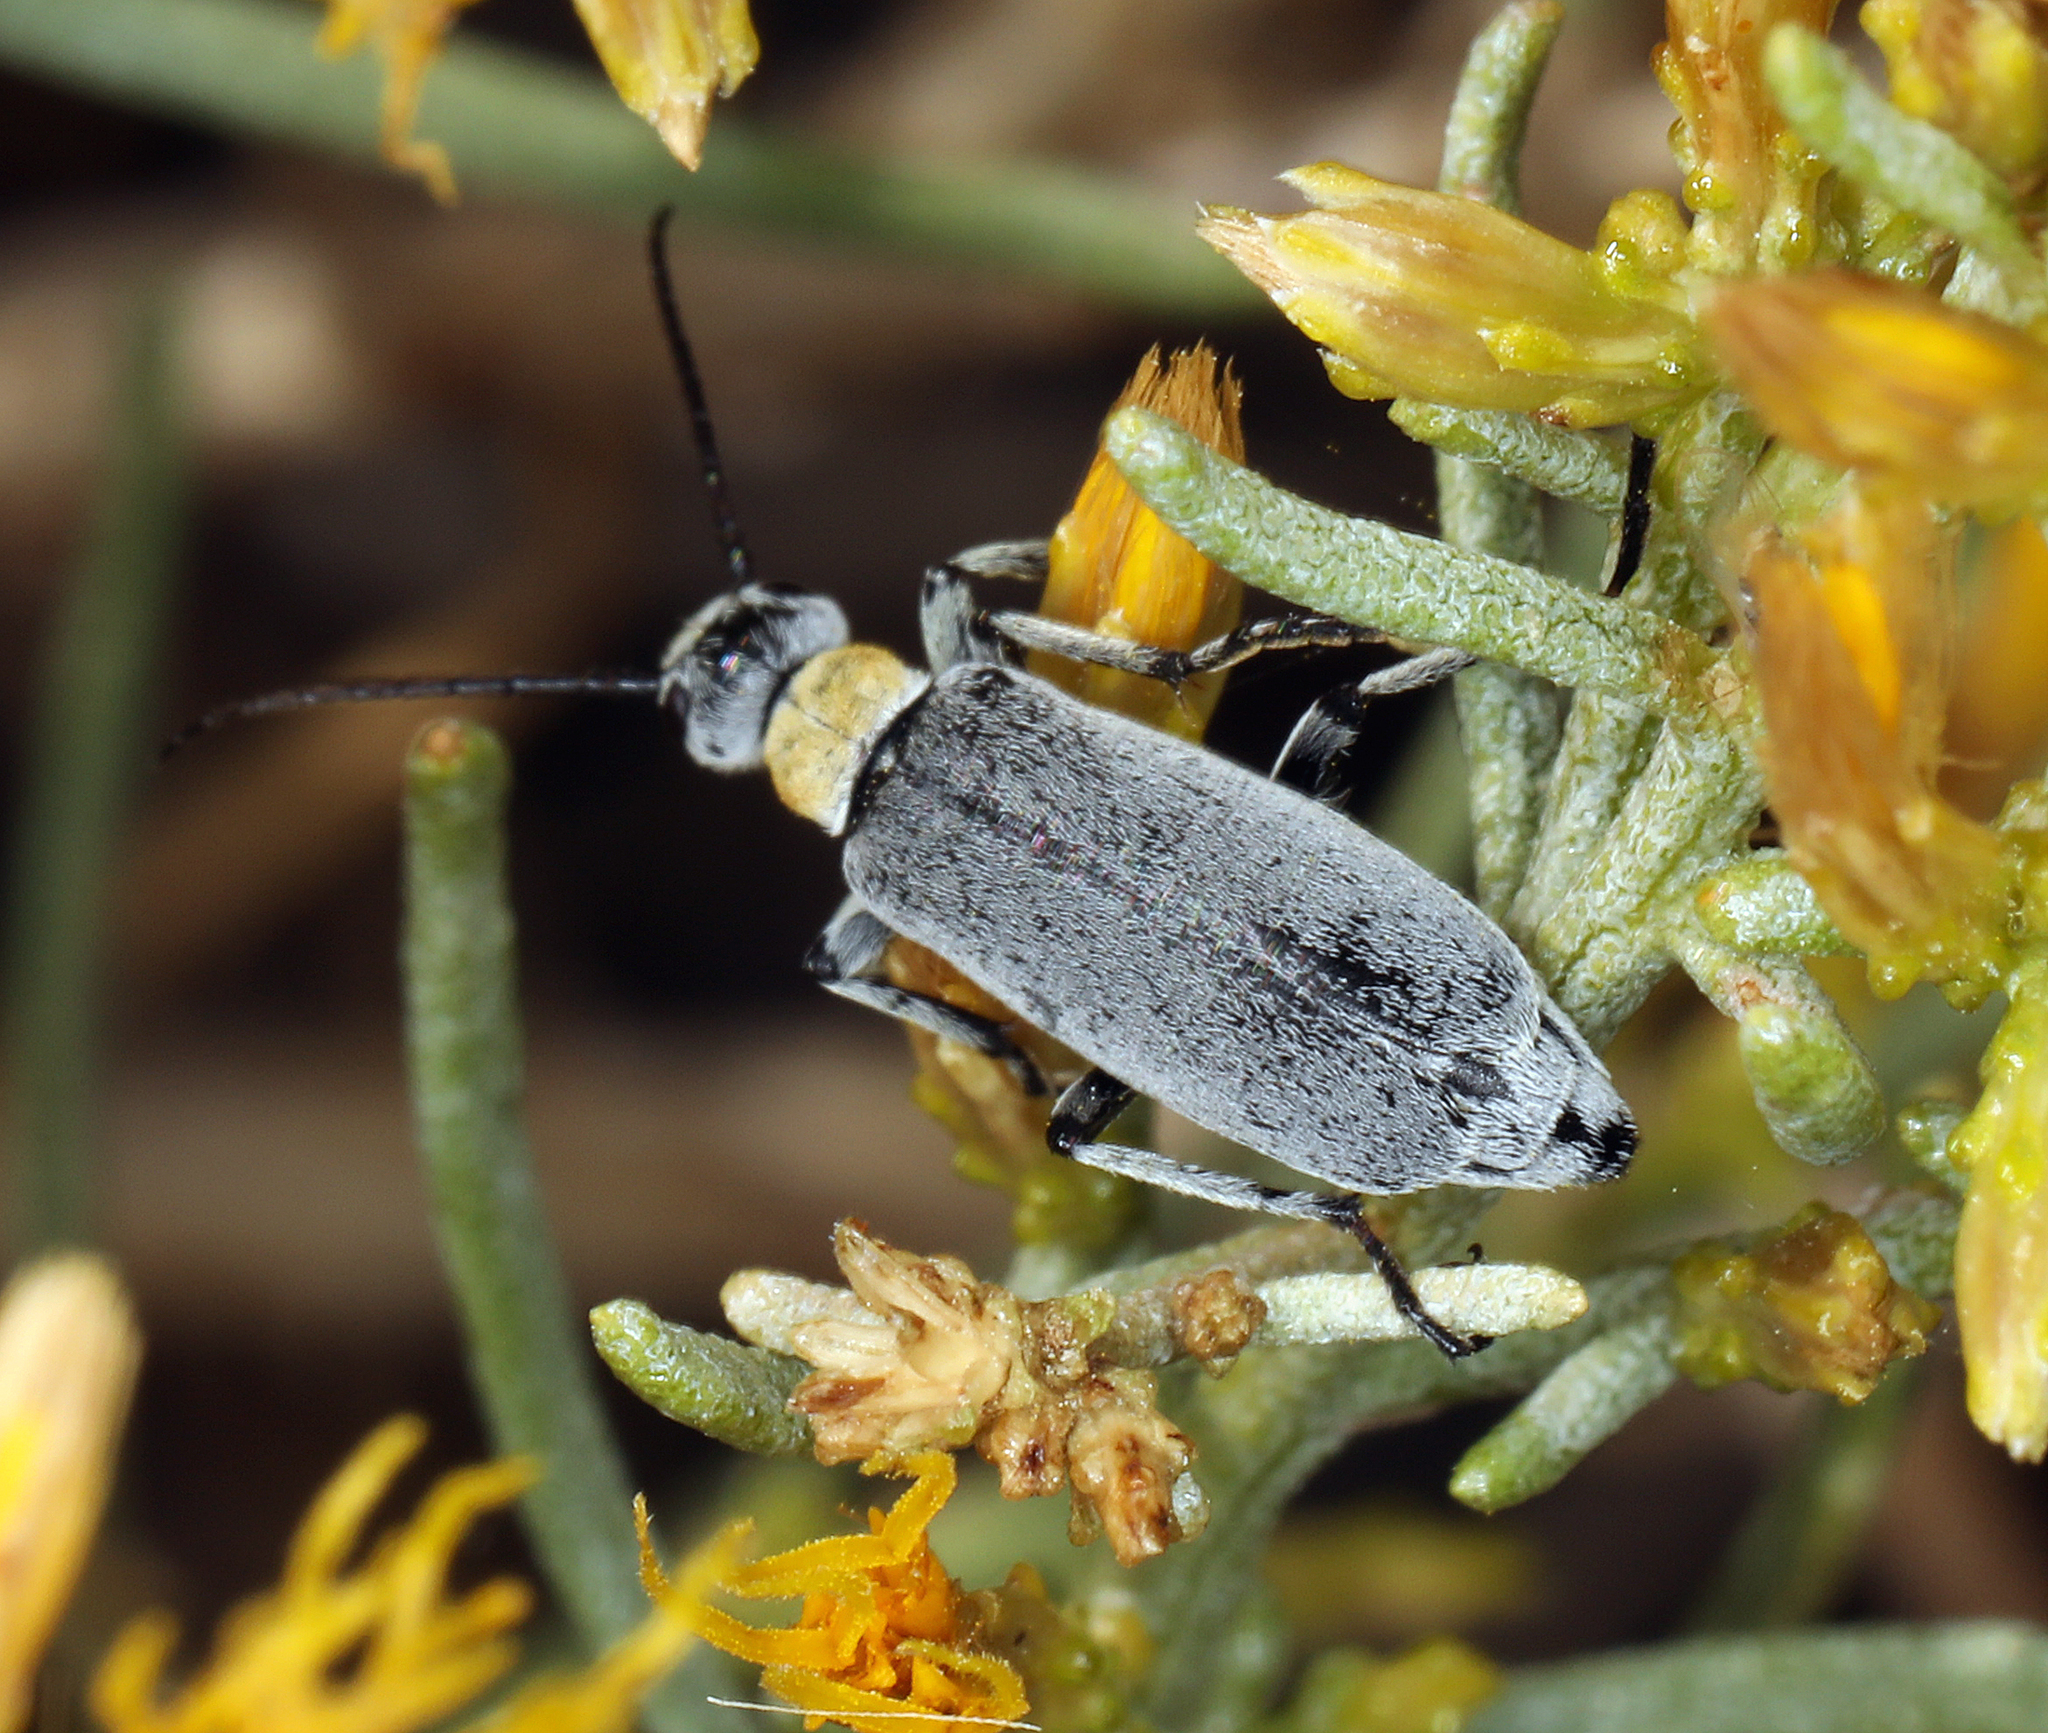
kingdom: Animalia
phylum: Arthropoda
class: Insecta
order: Coleoptera
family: Meloidae
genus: Epicauta
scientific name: Epicauta wheeleri
